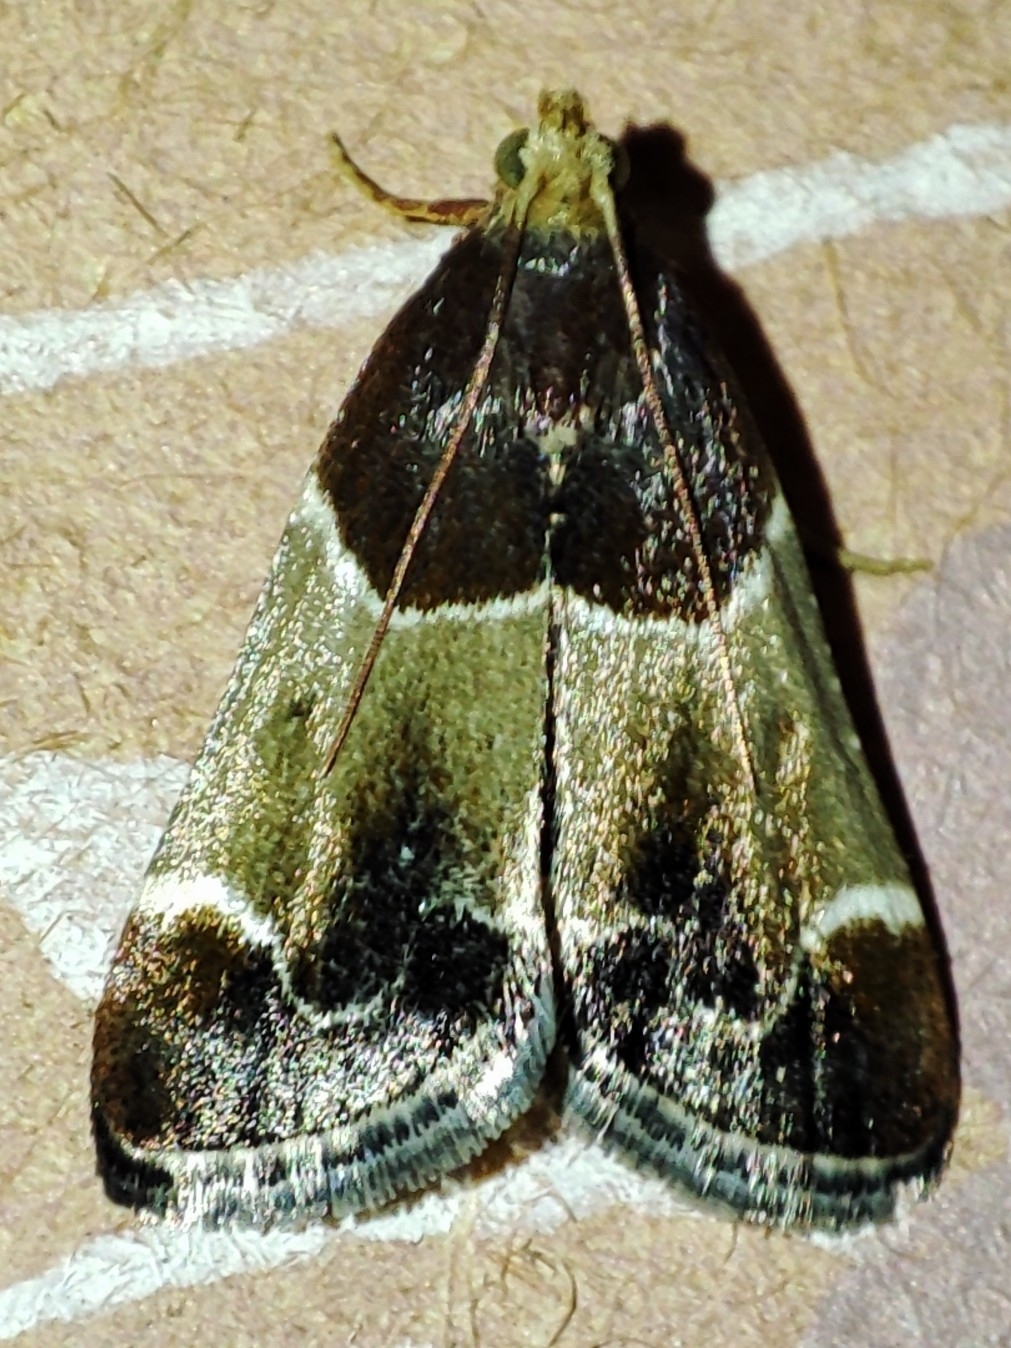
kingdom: Animalia
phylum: Arthropoda
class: Insecta
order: Lepidoptera
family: Pyralidae
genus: Pyralis
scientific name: Pyralis farinalis
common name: Meal moth
